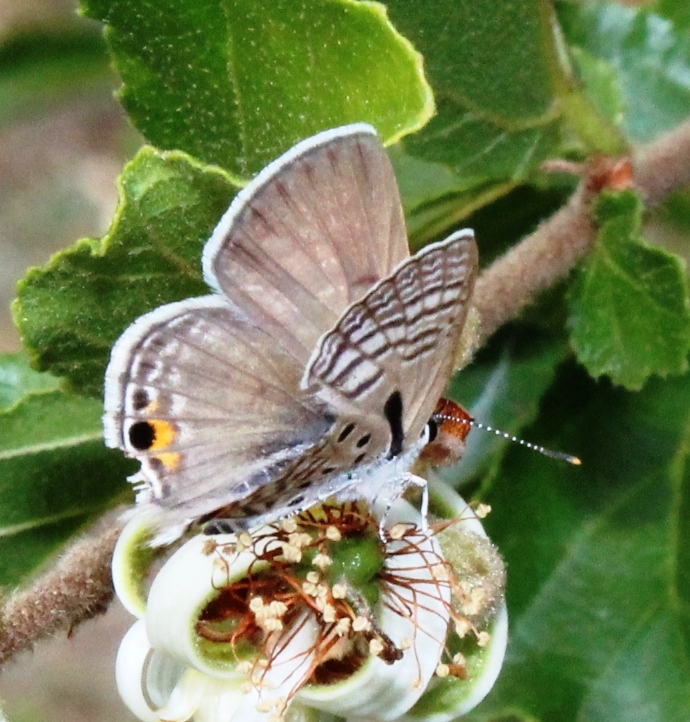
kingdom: Animalia
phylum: Arthropoda
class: Insecta
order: Lepidoptera
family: Lycaenidae
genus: Anthene
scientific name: Anthene amarah
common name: Black-striped hairtail
